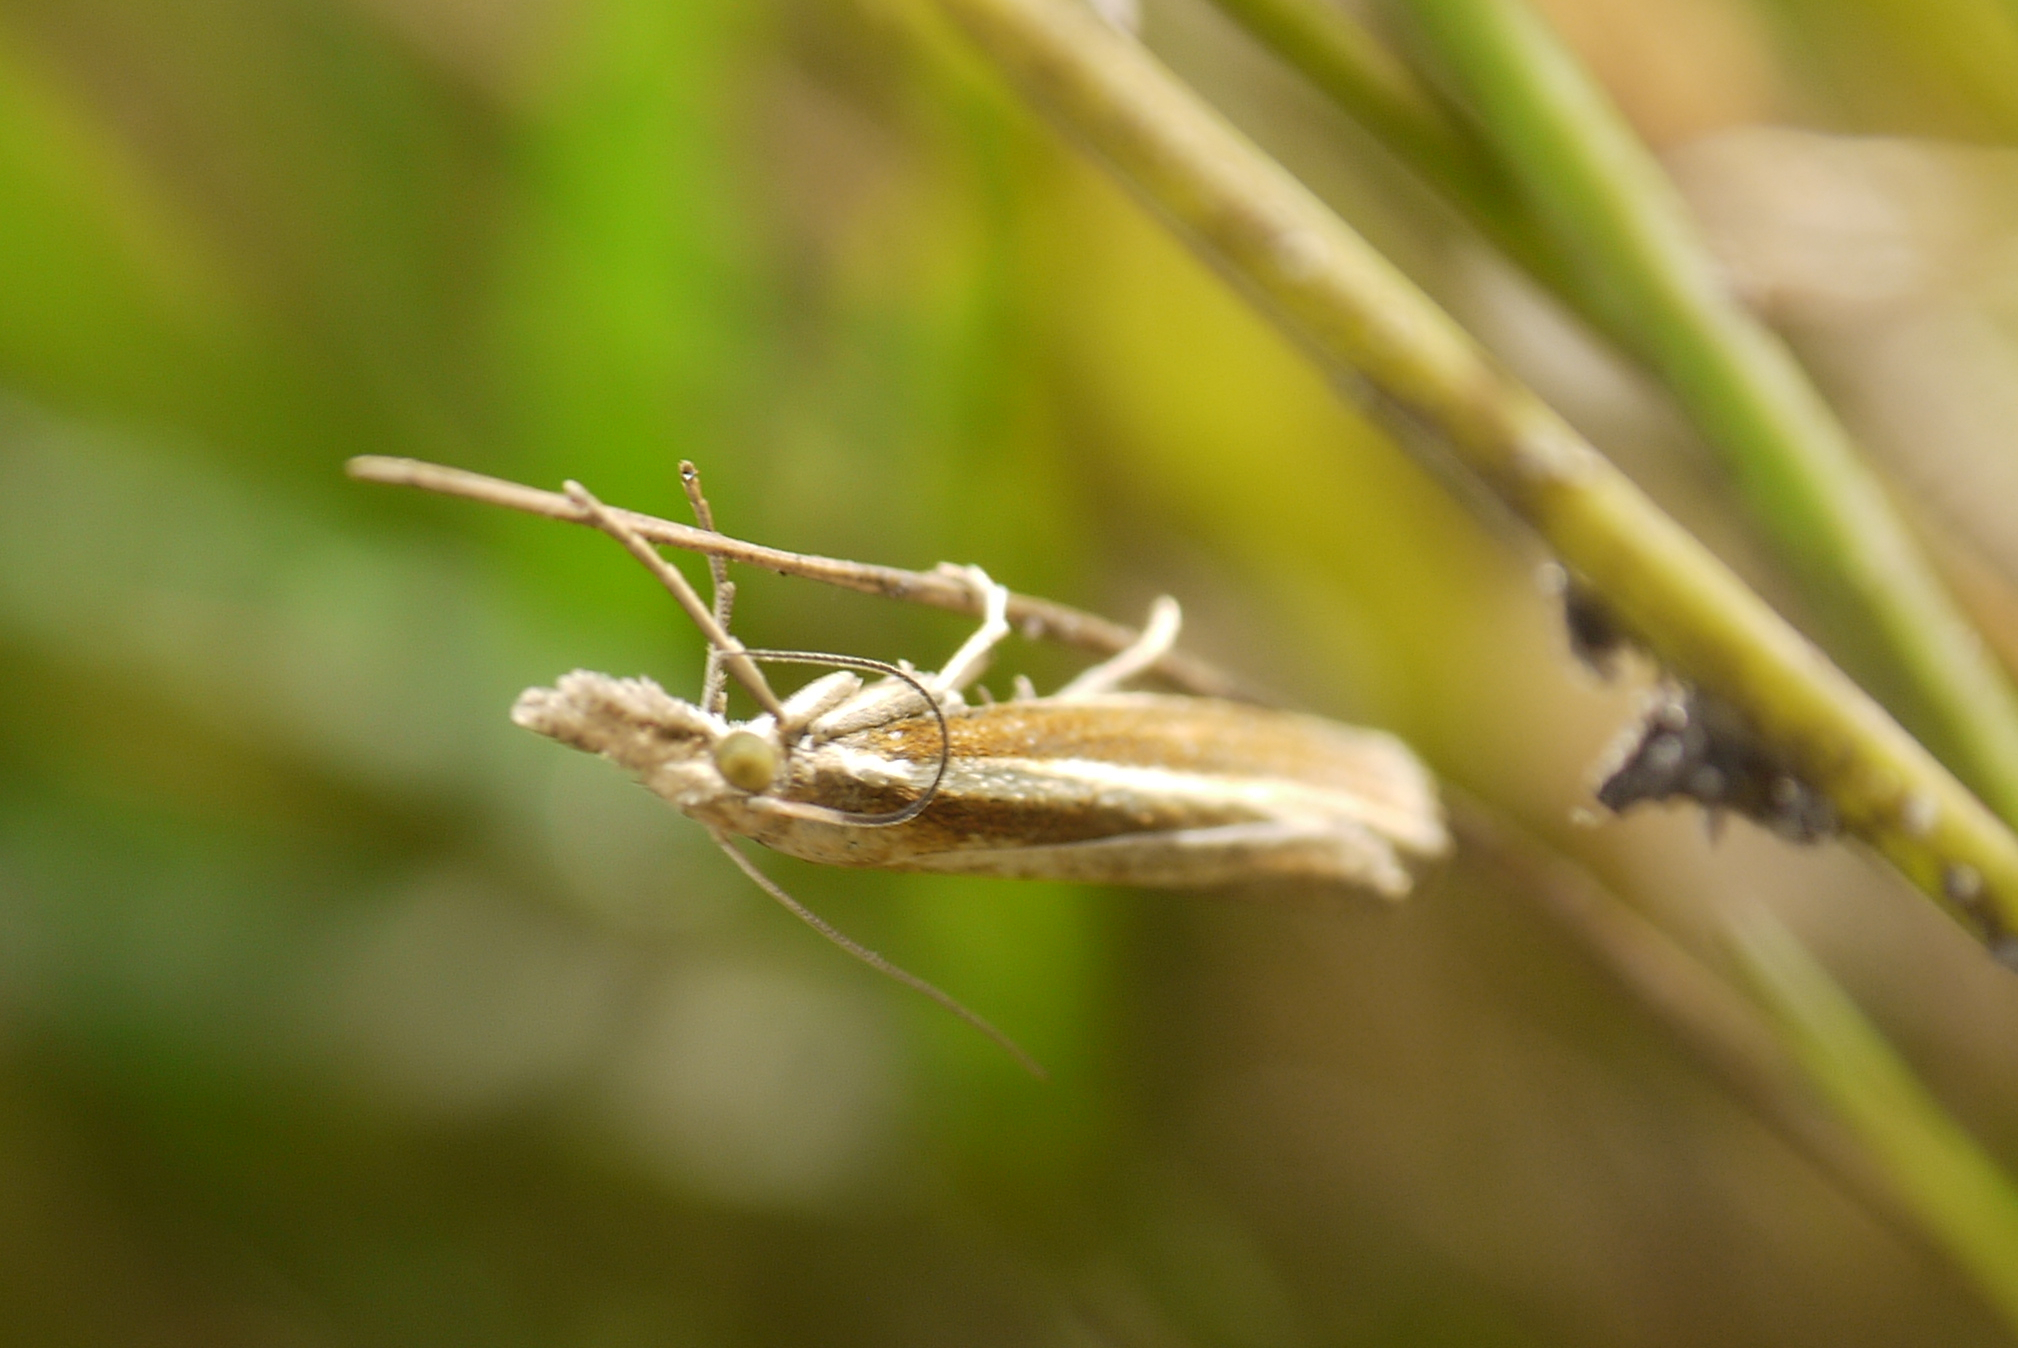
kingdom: Animalia
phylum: Arthropoda
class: Insecta
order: Lepidoptera
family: Crambidae
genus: Agriphila
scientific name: Agriphila tristellus
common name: Common grass-veneer
